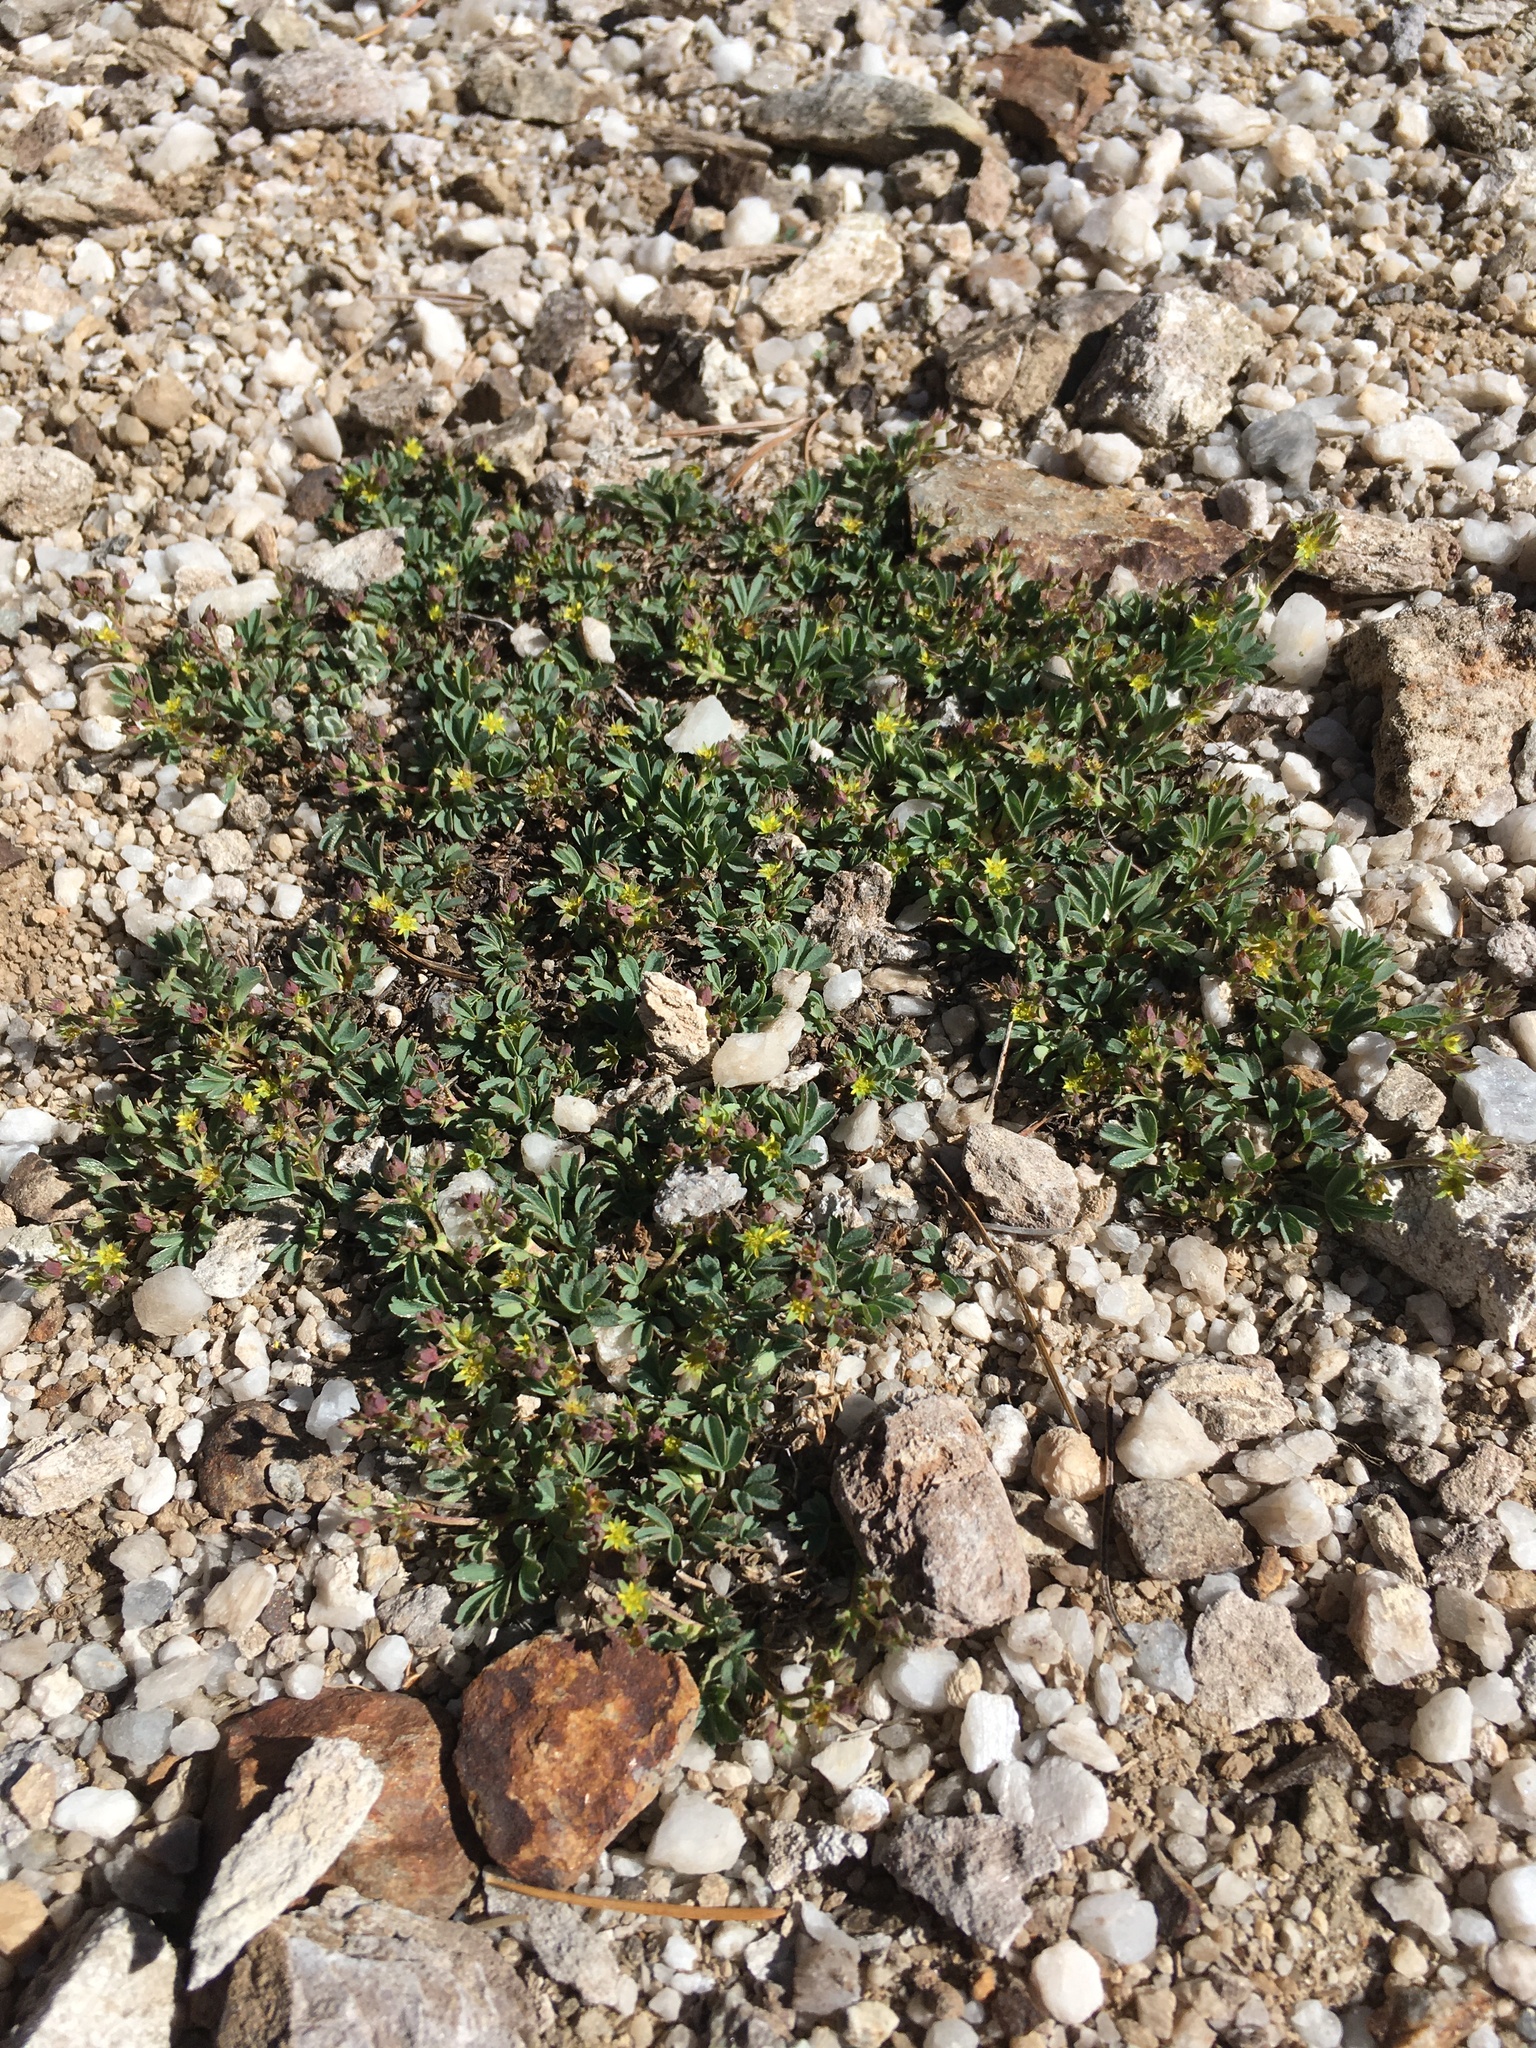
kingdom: Plantae
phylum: Tracheophyta
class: Magnoliopsida
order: Rosales
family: Rosaceae
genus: Sibbaldia
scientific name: Sibbaldia procumbens
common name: Creeping sibbaldia
